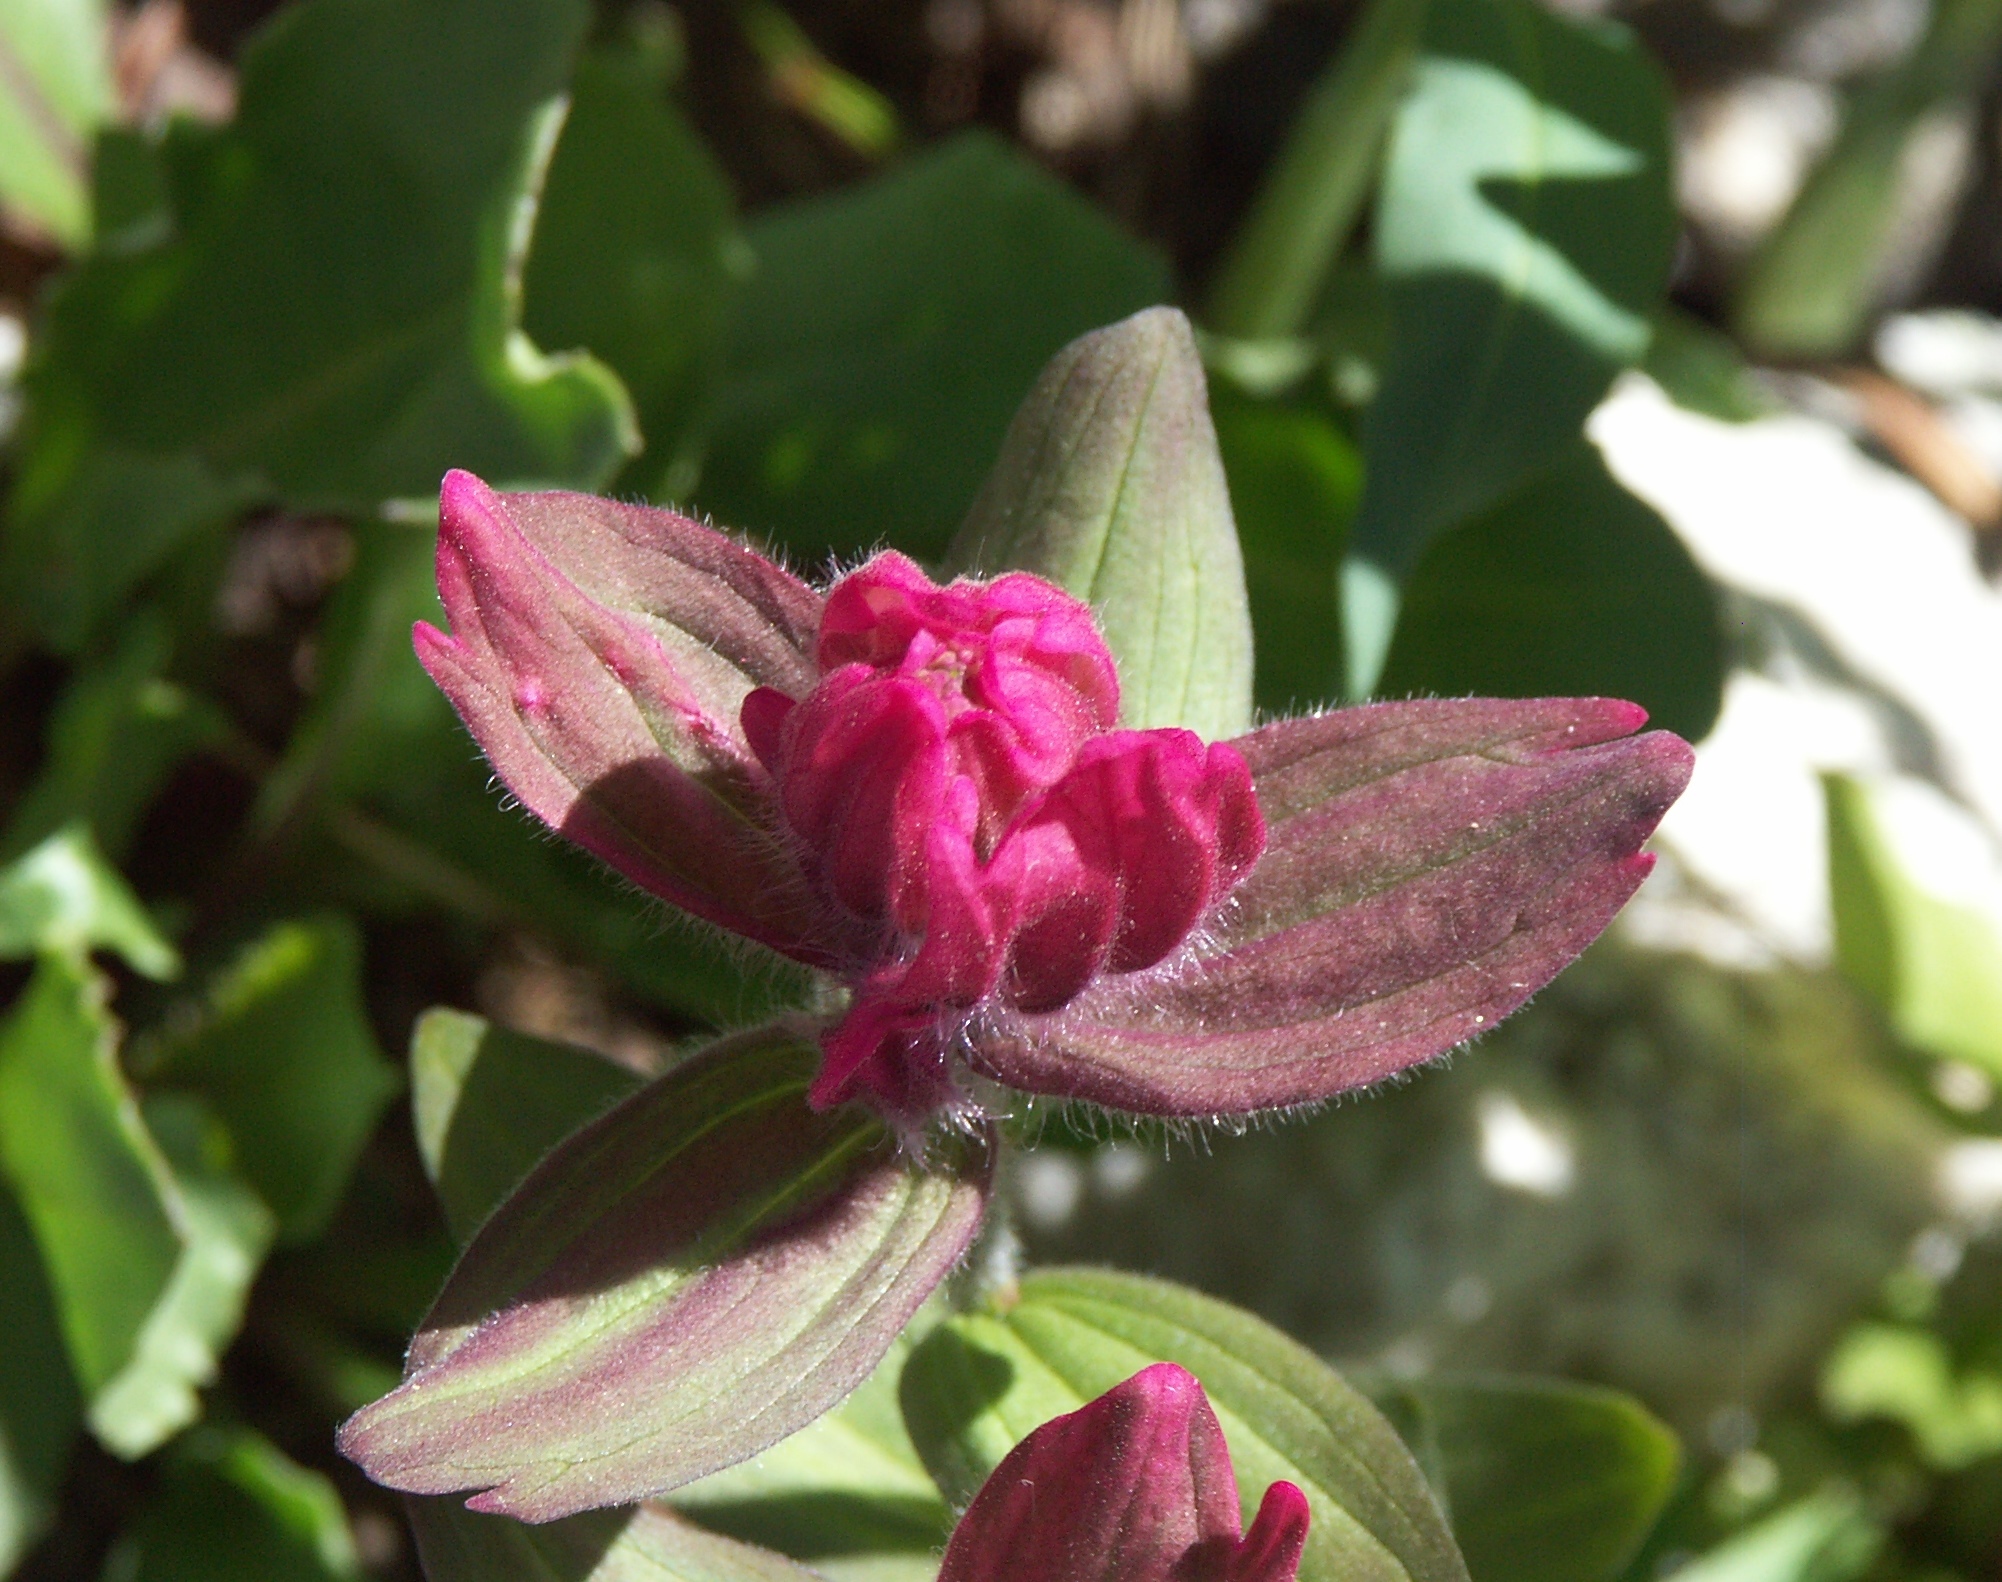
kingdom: Plantae
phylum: Tracheophyta
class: Magnoliopsida
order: Lamiales
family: Orobanchaceae
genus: Castilleja
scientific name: Castilleja rhexifolia
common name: Rocky mountain paintbrush
